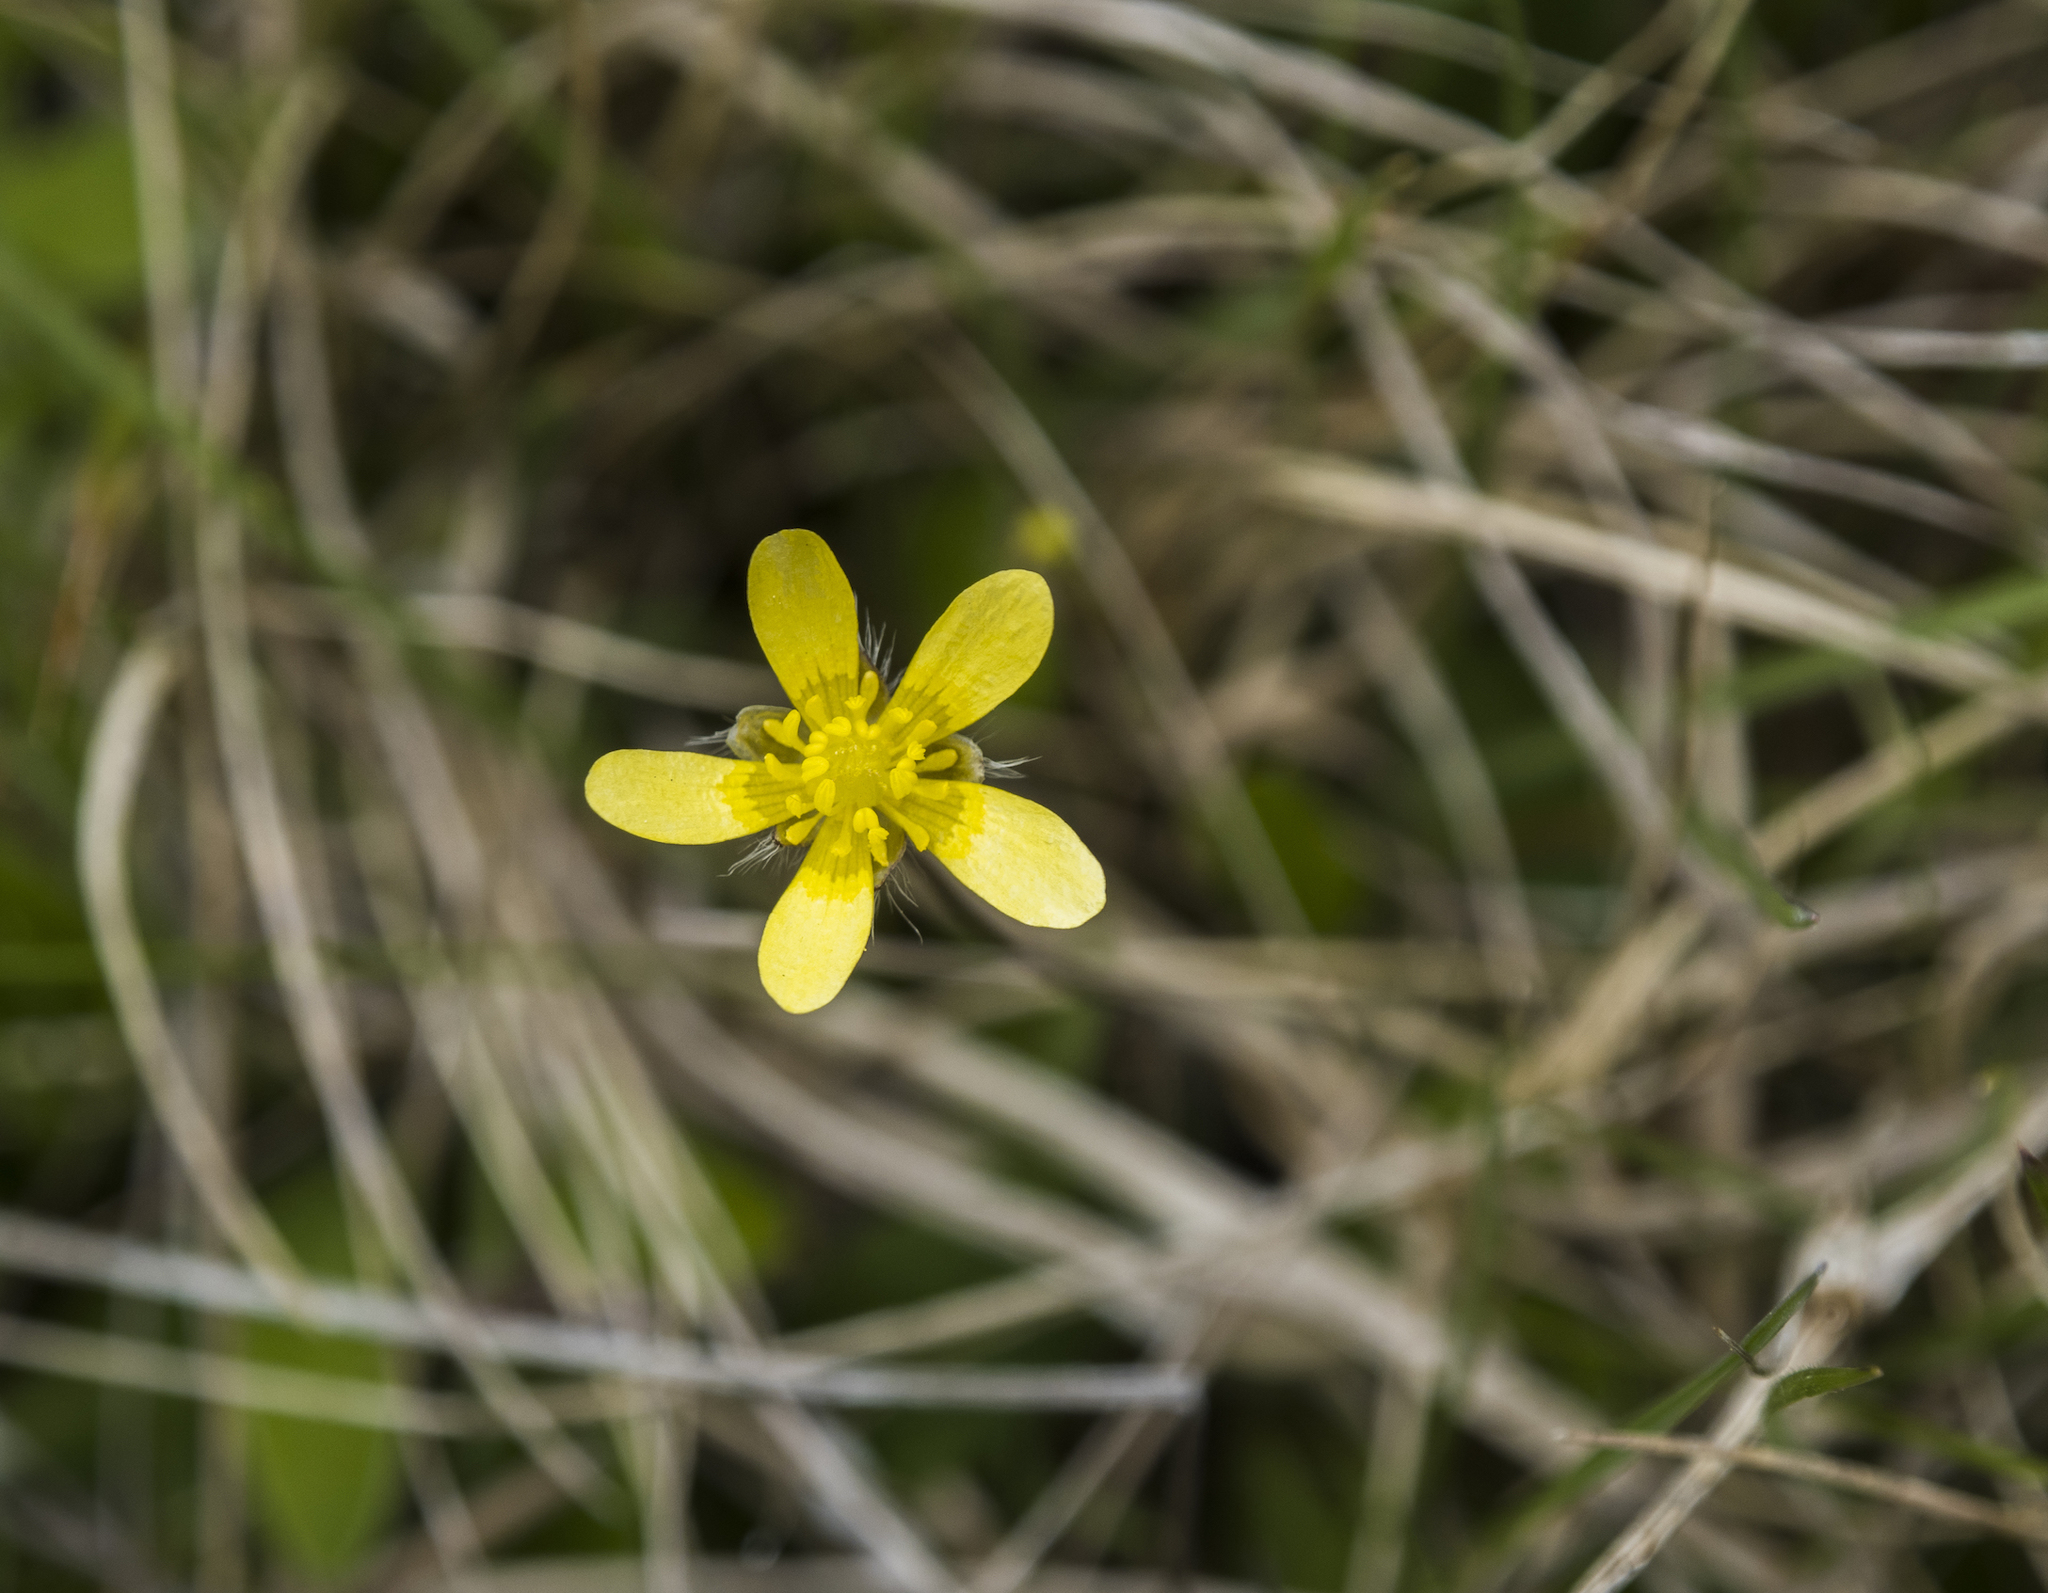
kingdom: Plantae
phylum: Tracheophyta
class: Magnoliopsida
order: Ranunculales
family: Ranunculaceae
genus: Ranunculus
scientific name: Ranunculus multiscapus
